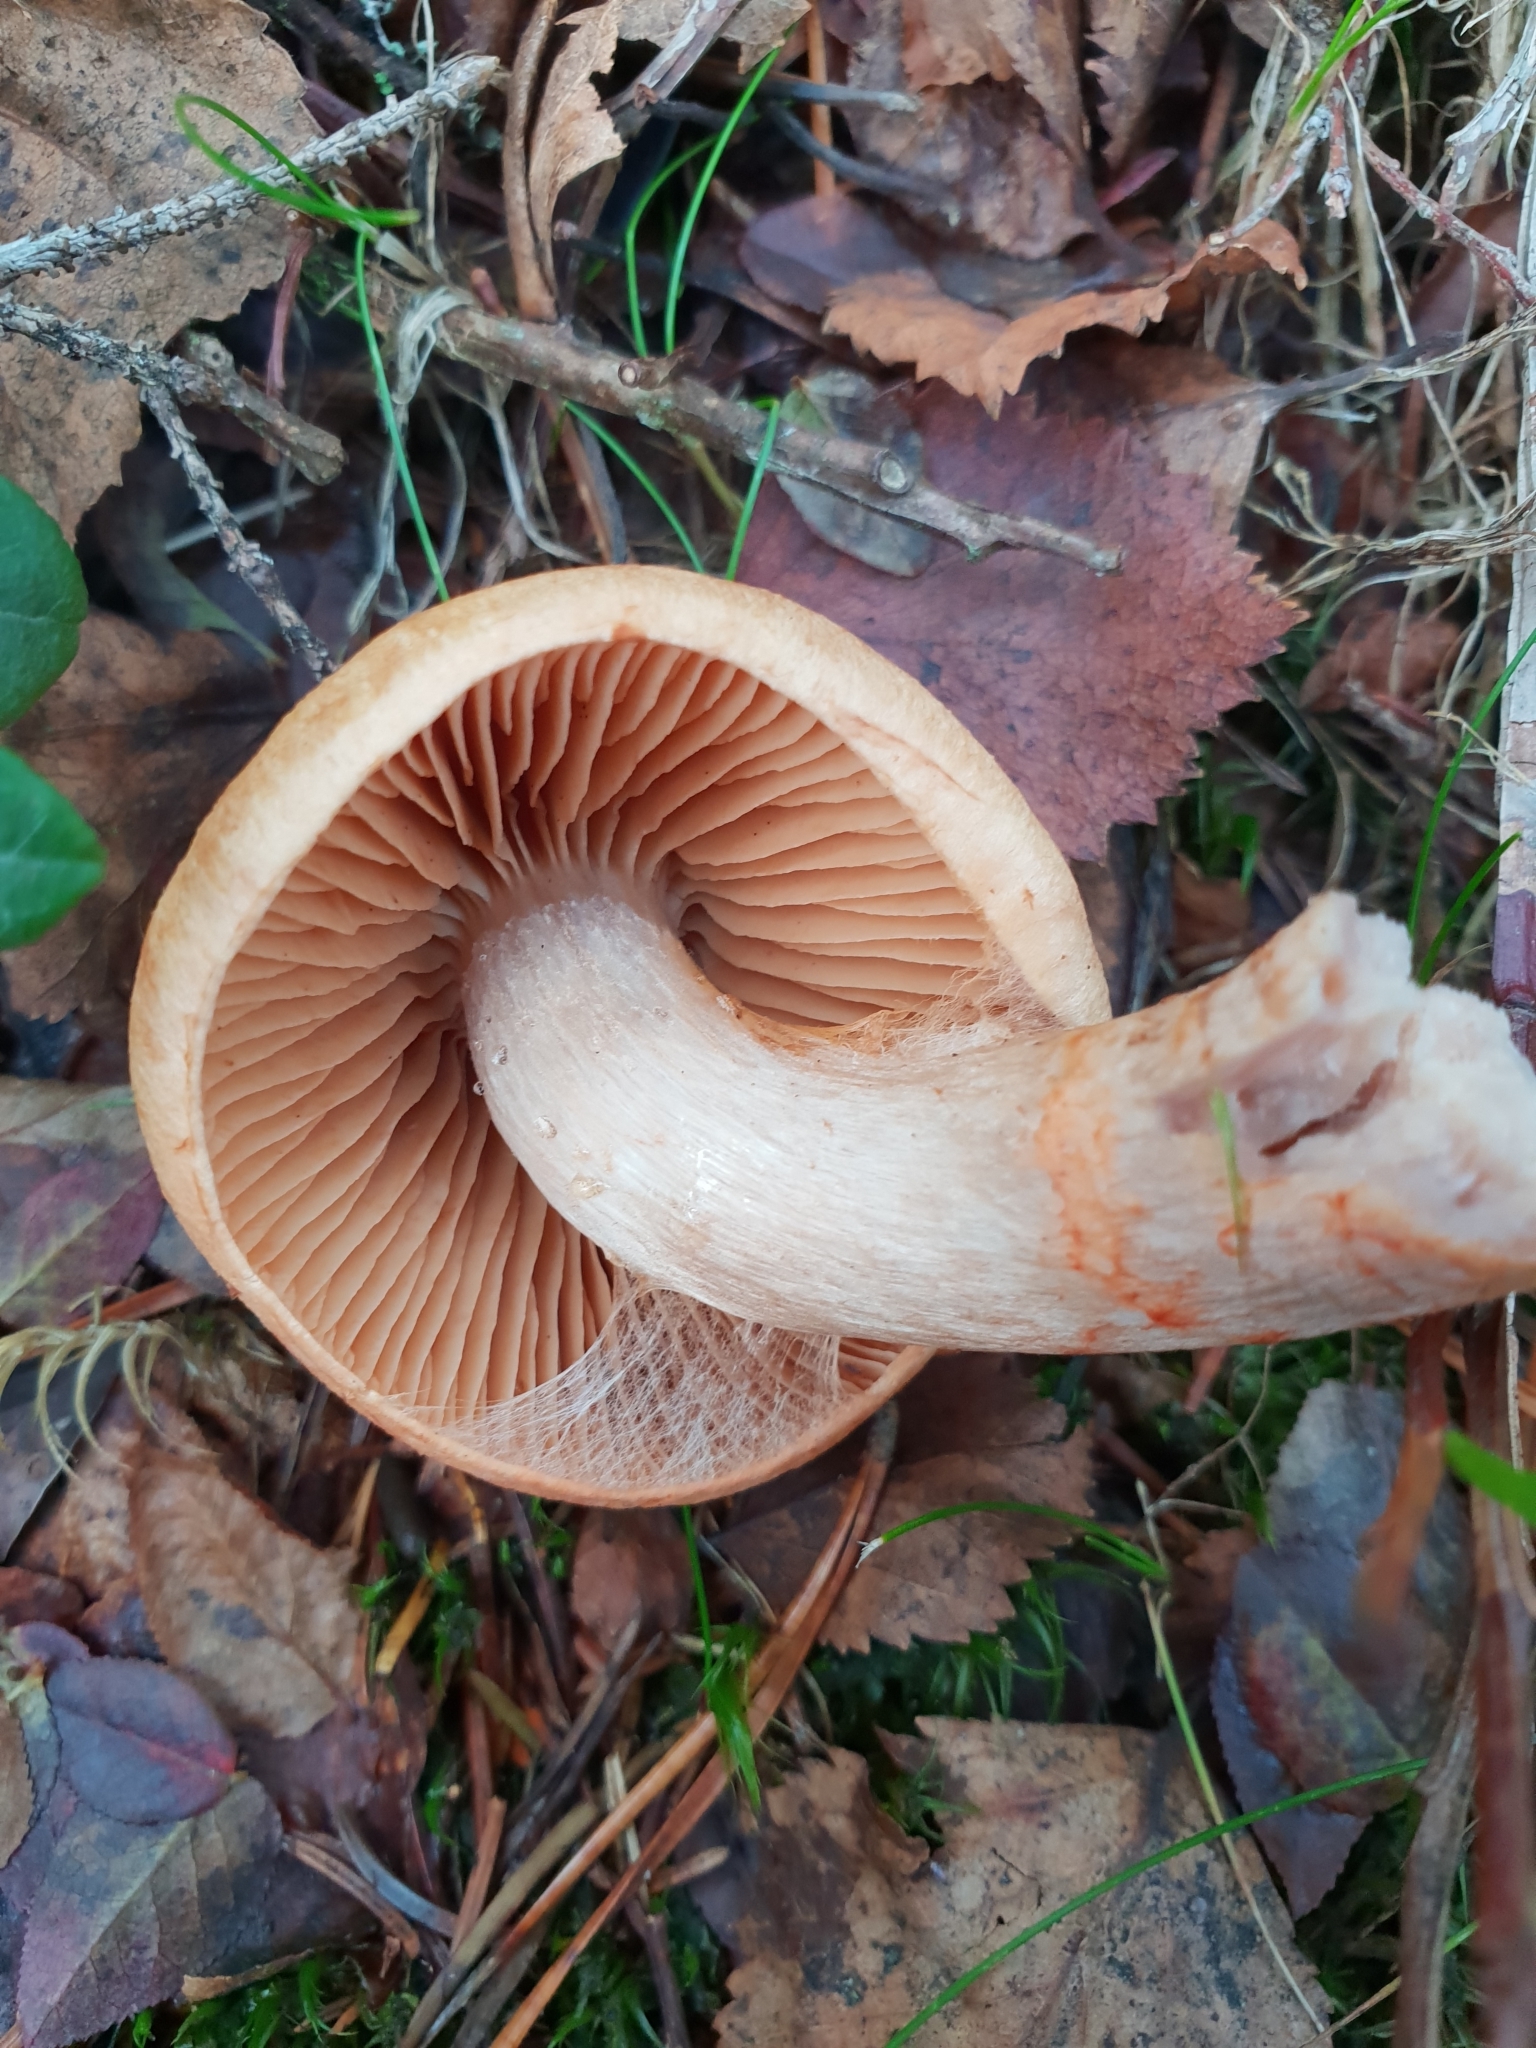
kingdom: Fungi
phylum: Basidiomycota
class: Agaricomycetes
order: Agaricales
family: Cortinariaceae
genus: Cortinarius
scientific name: Cortinarius armillatus
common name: Red banded webcap
